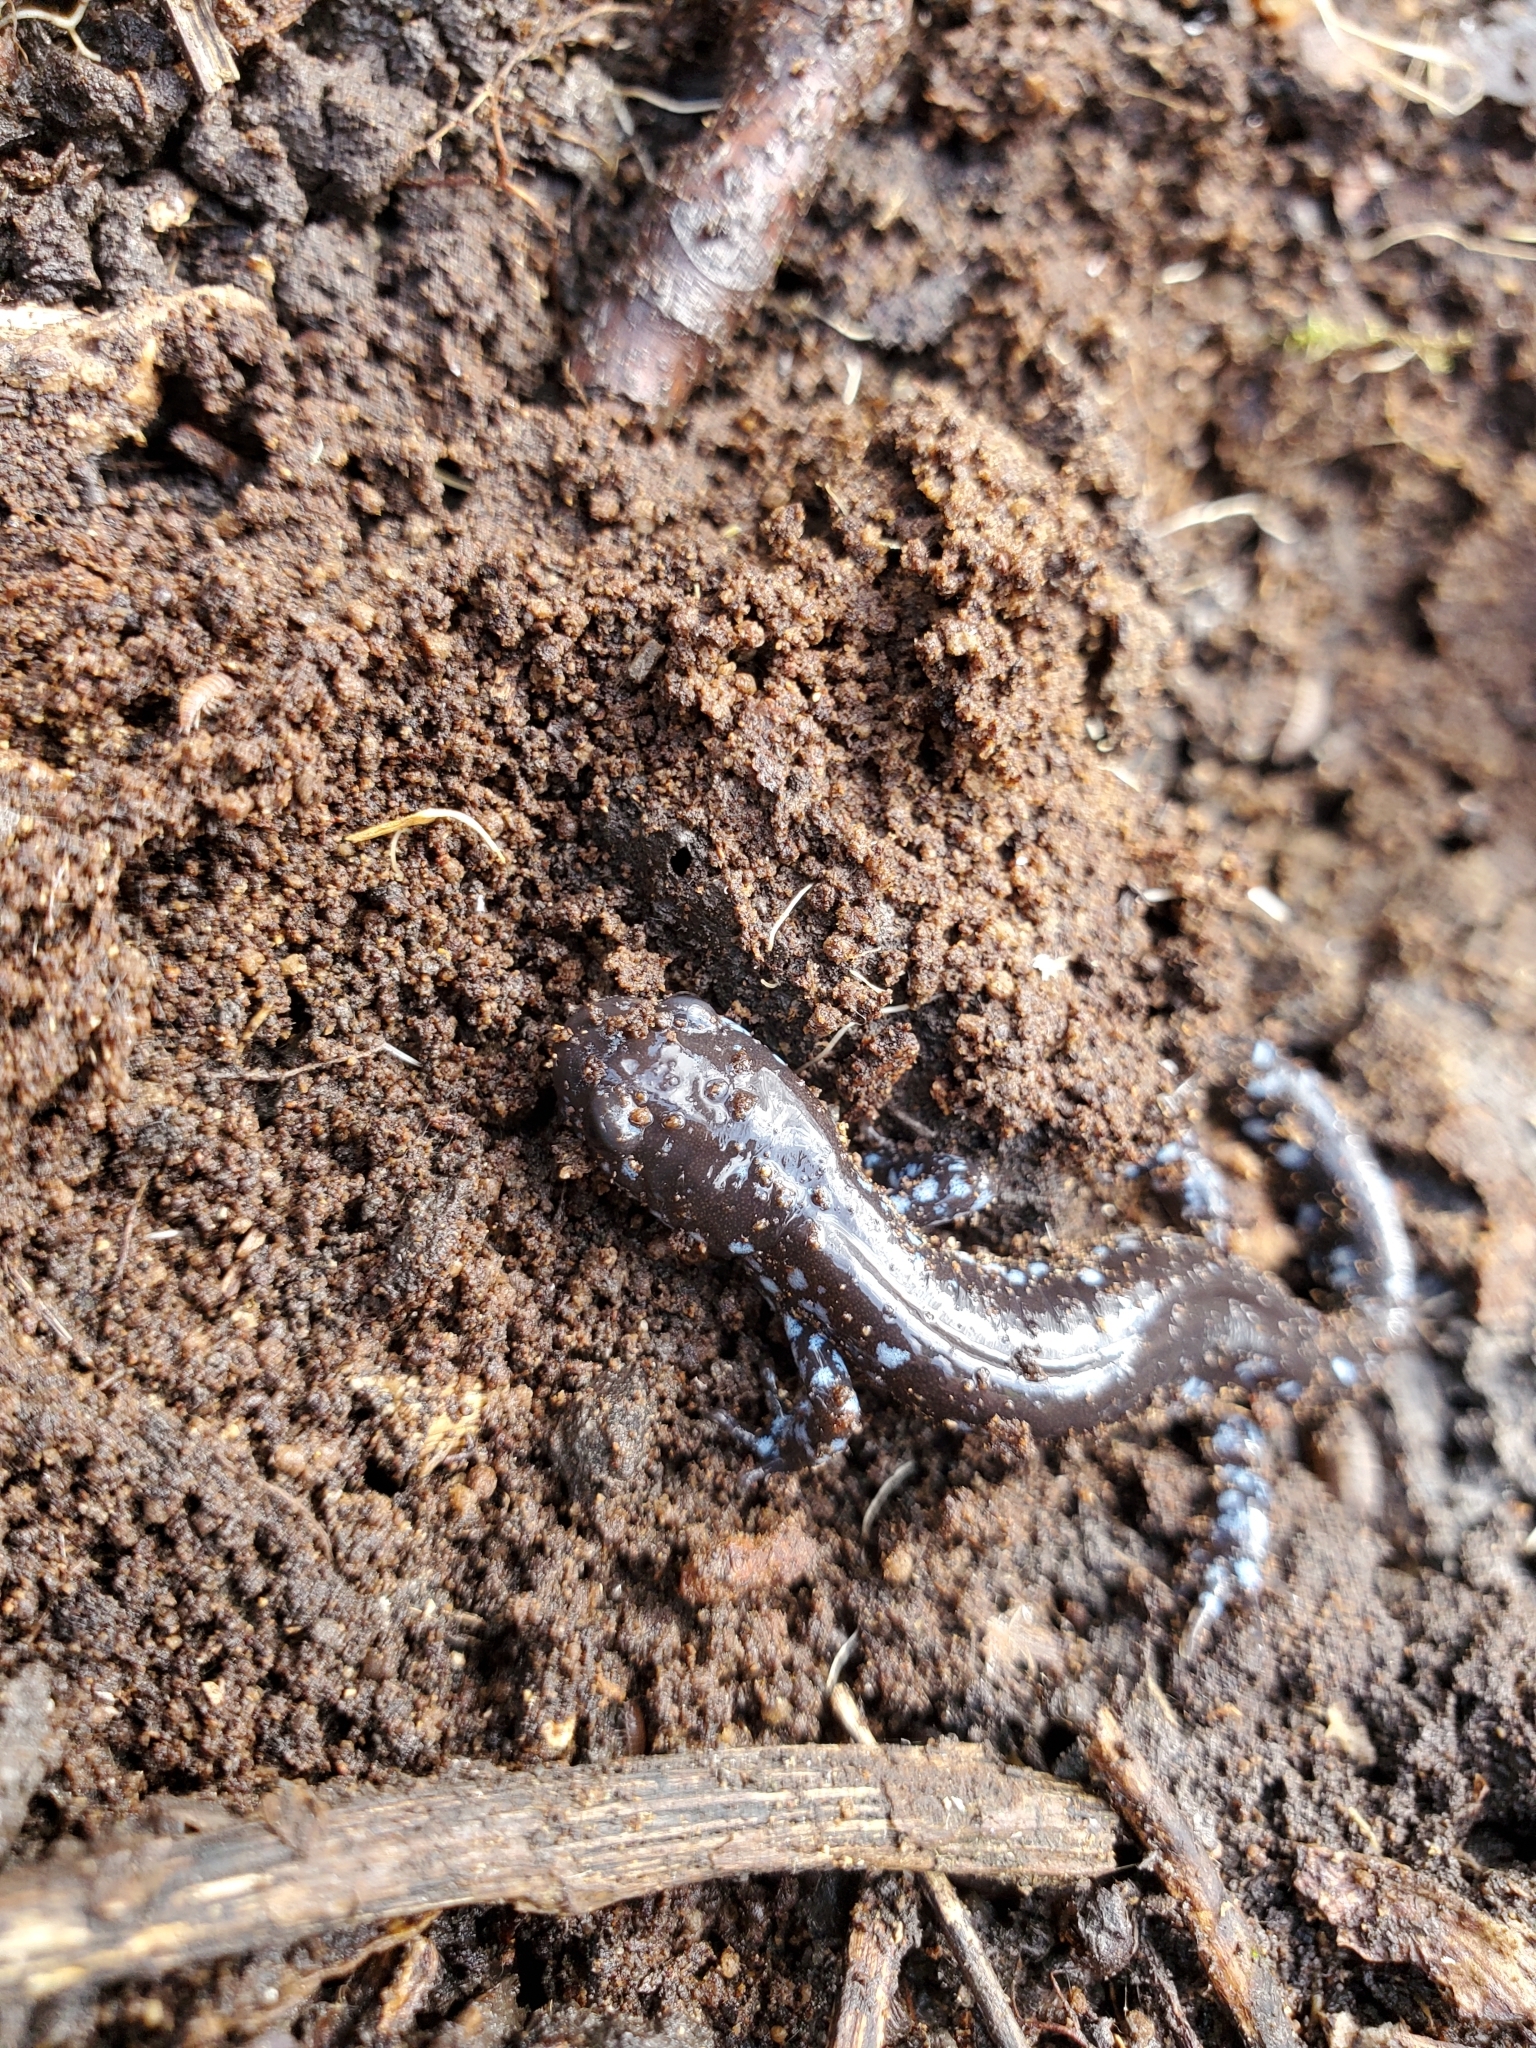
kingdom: Animalia
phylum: Chordata
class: Amphibia
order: Caudata
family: Ambystomatidae
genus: Ambystoma
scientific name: Ambystoma laterale
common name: Blue-spotted salamander
